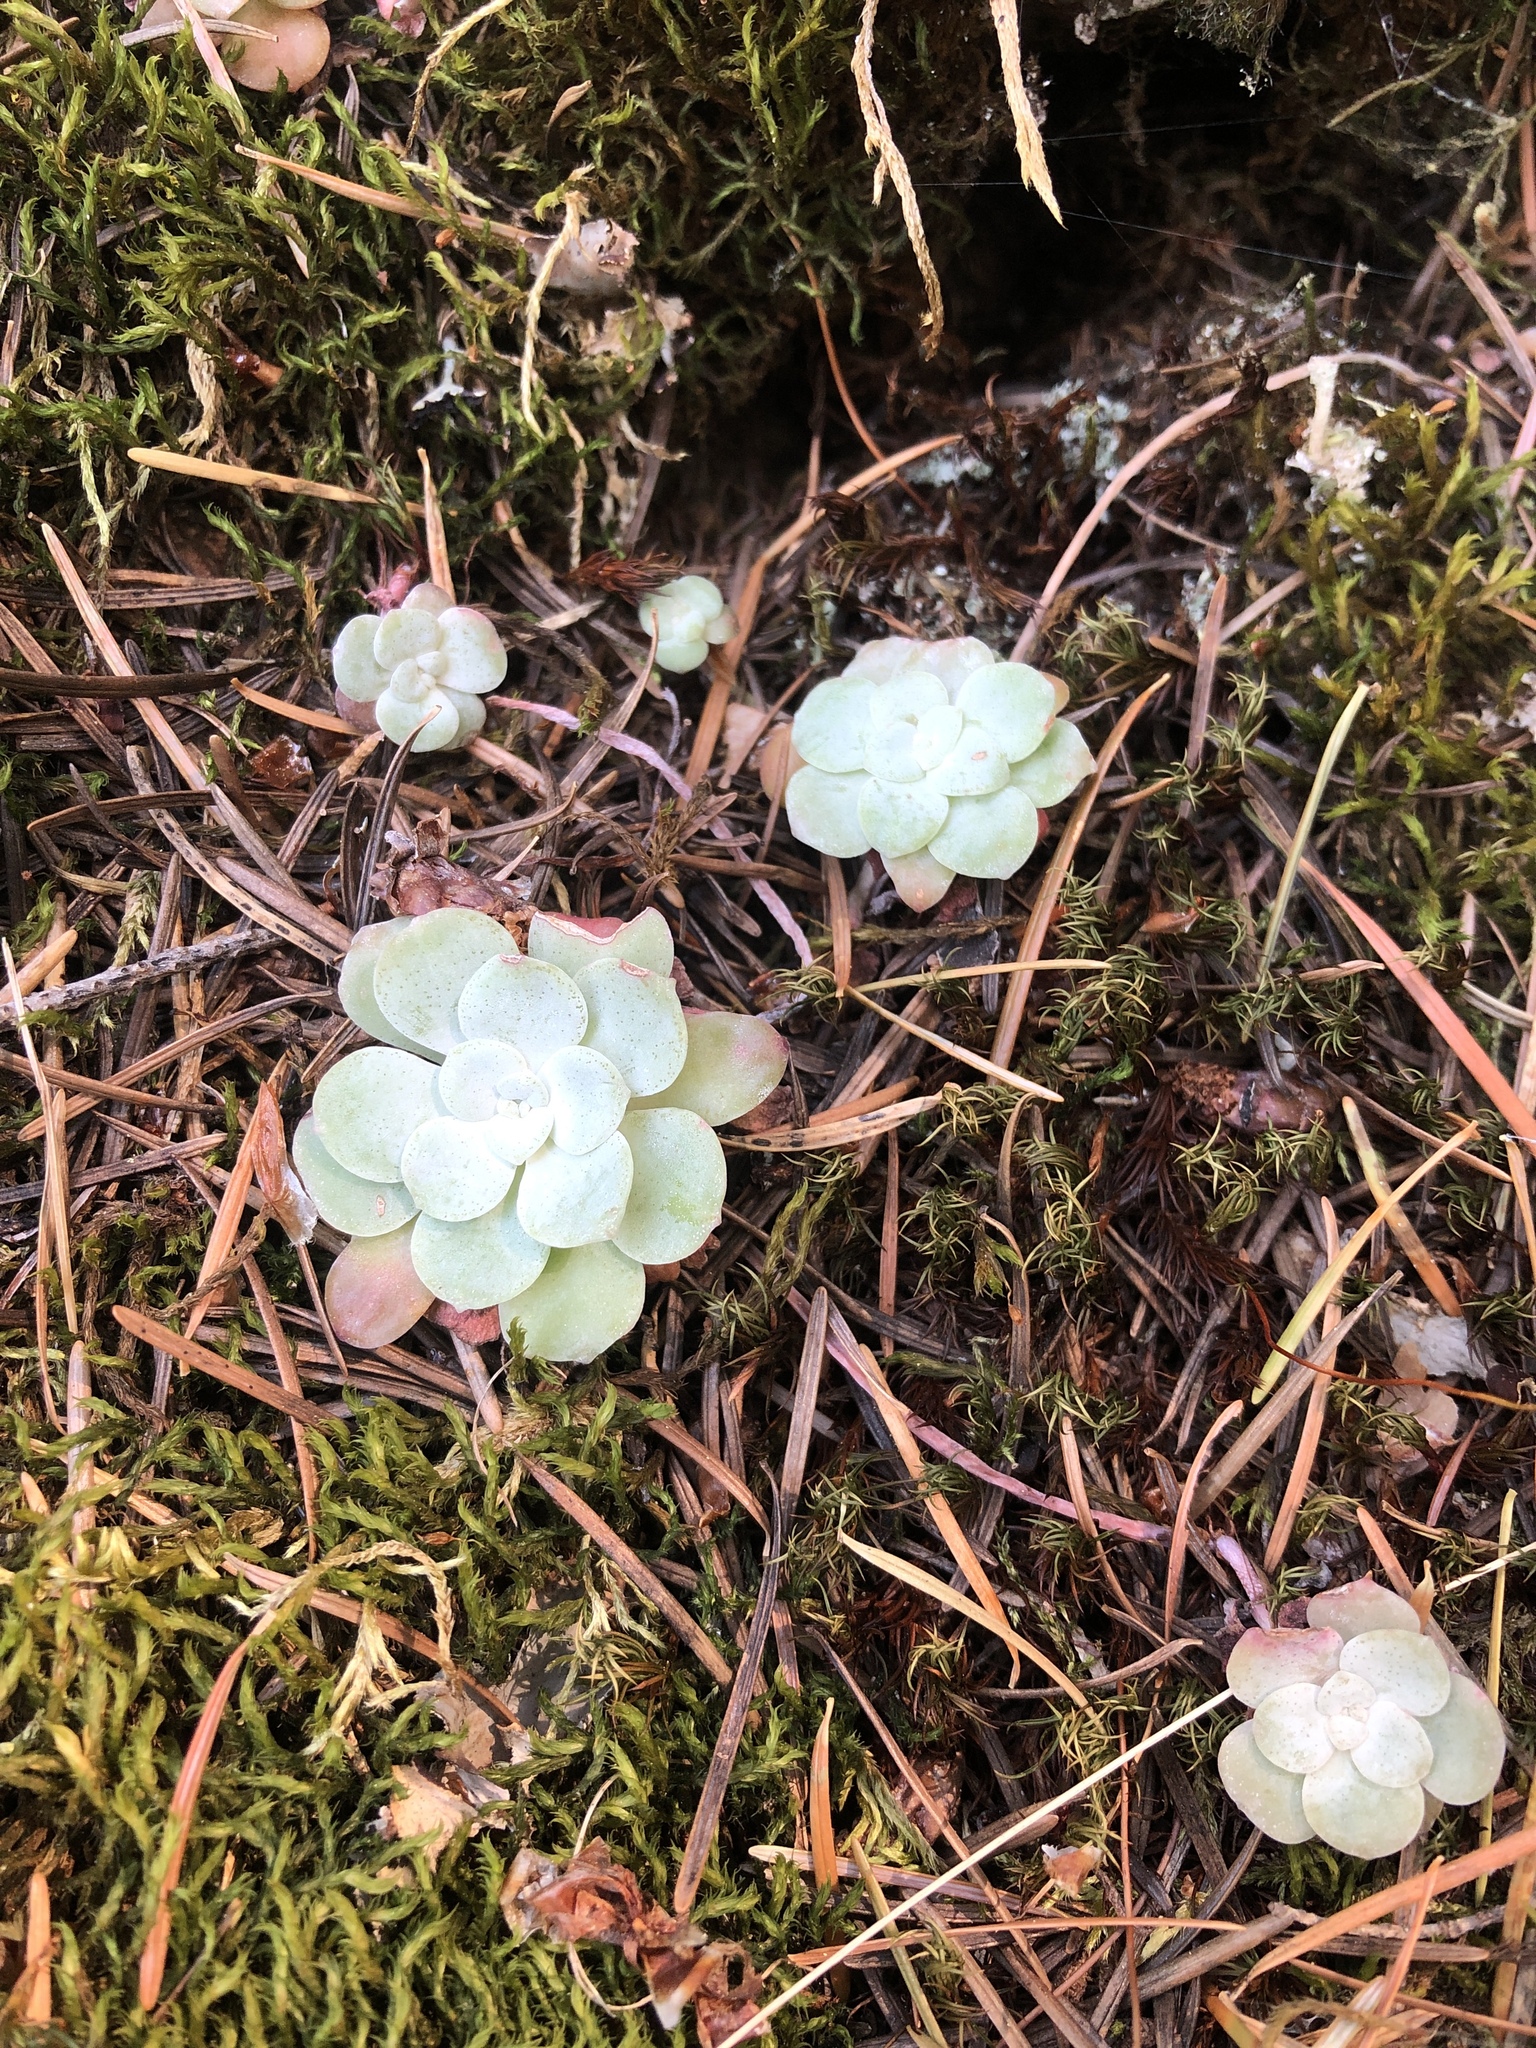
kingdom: Plantae
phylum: Tracheophyta
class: Magnoliopsida
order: Saxifragales
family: Crassulaceae
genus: Sedum
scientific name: Sedum spathulifolium
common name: Colorado stonecrop
